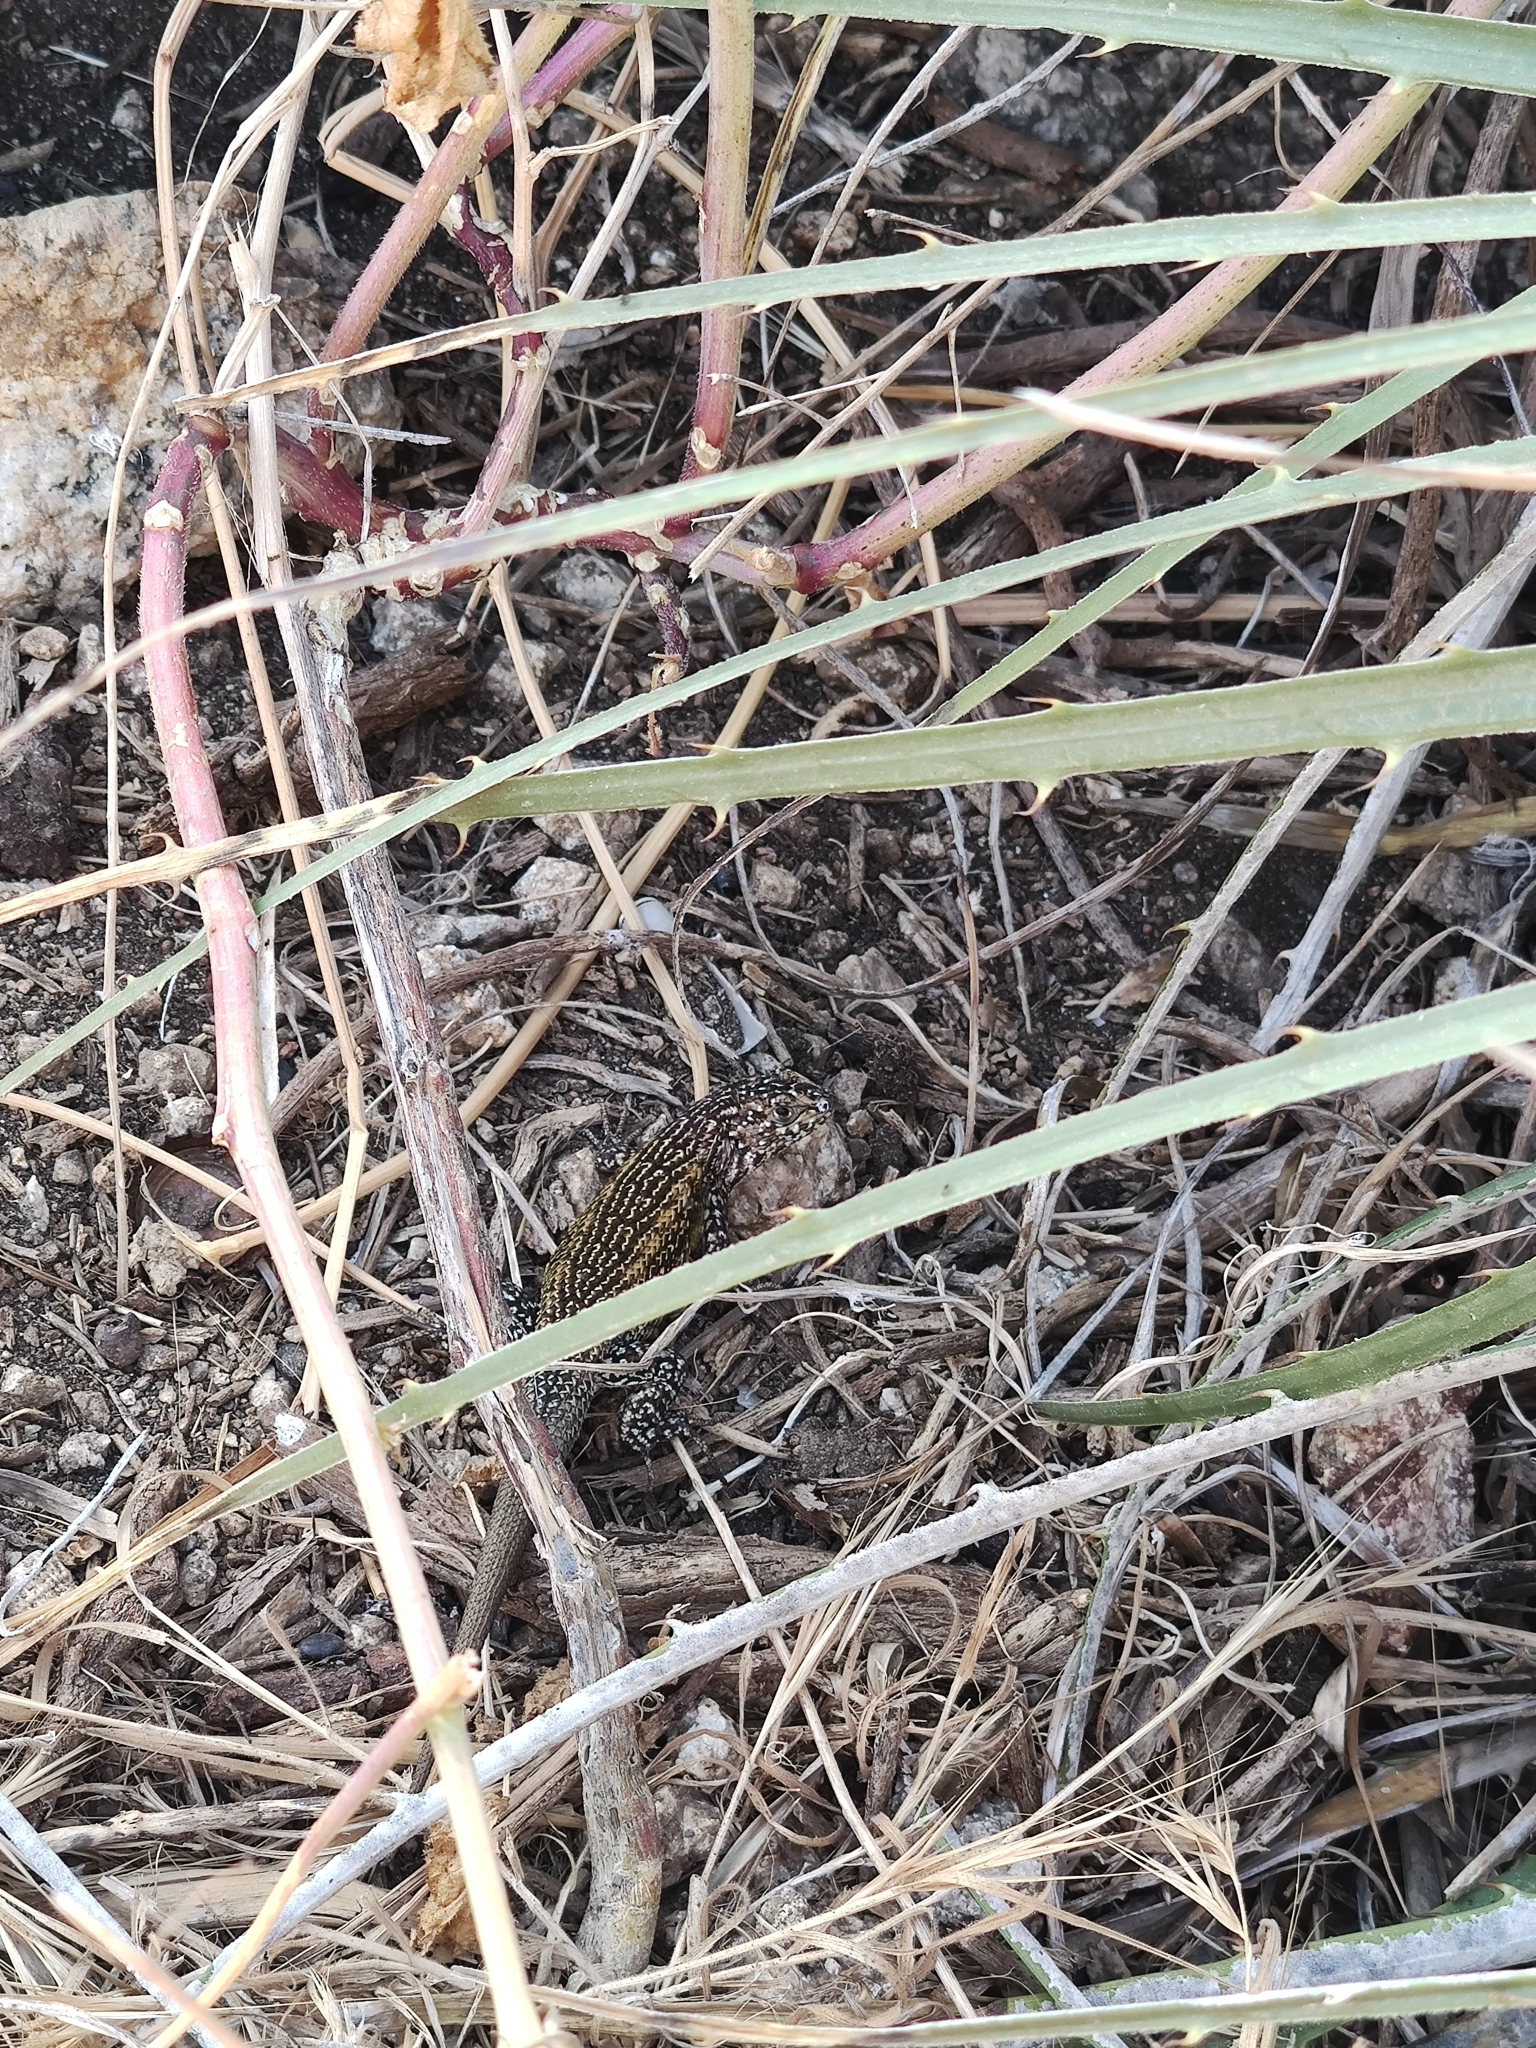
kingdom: Animalia
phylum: Chordata
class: Squamata
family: Liolaemidae
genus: Liolaemus
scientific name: Liolaemus nitidus
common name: Shining tree iguana
